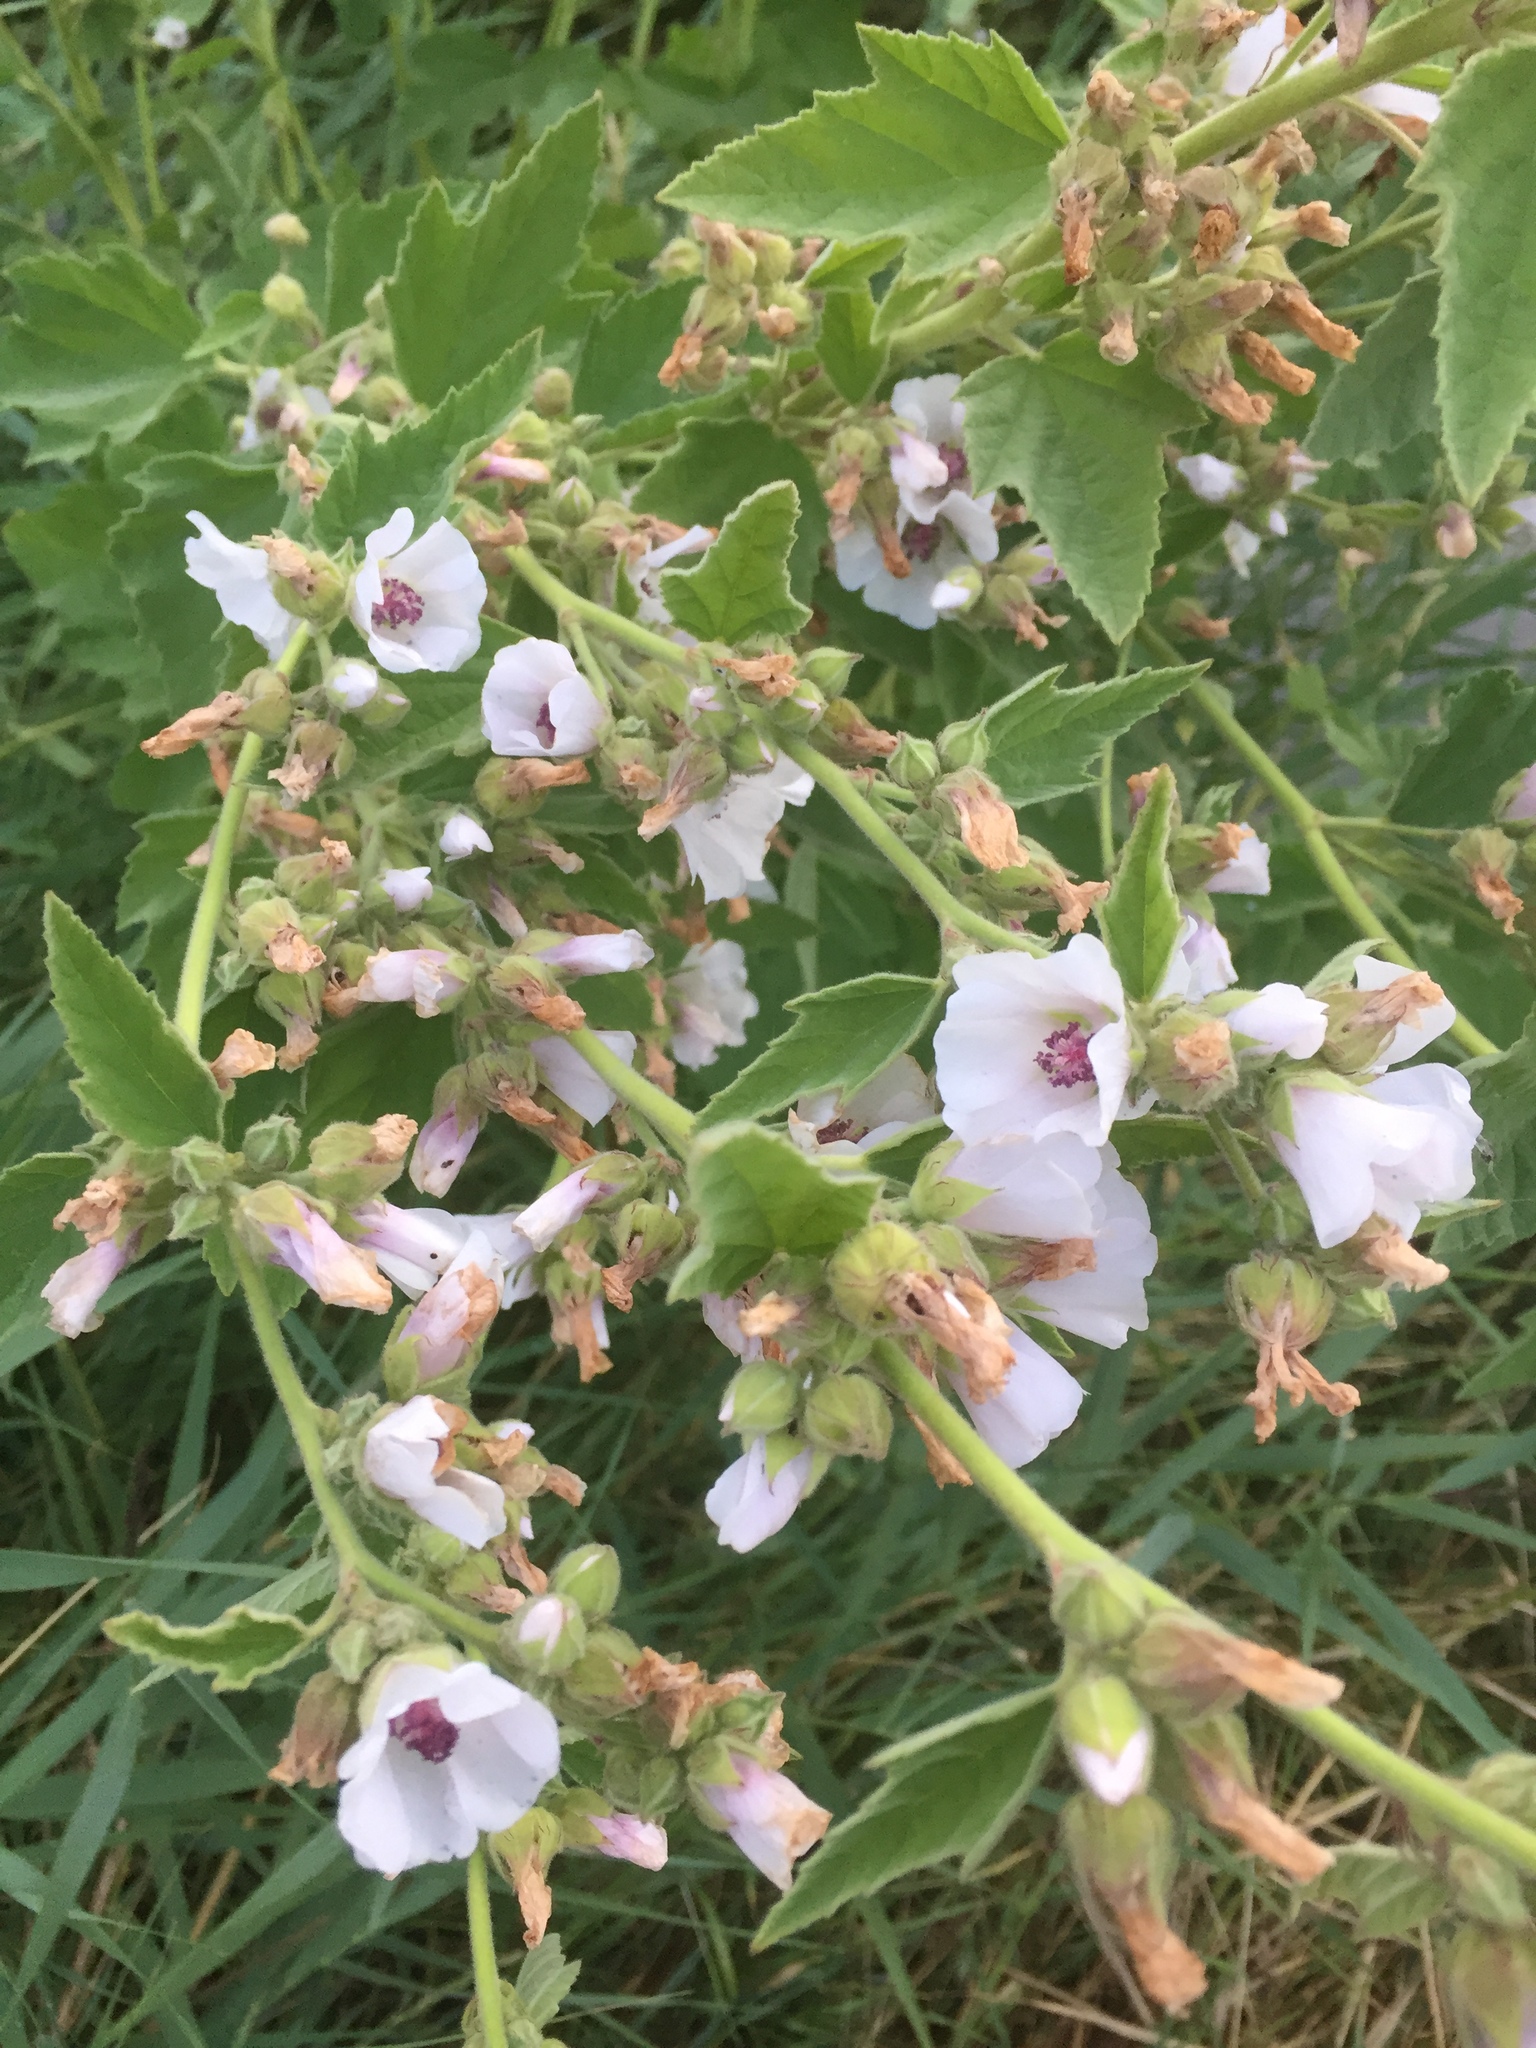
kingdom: Plantae
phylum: Tracheophyta
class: Magnoliopsida
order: Malvales
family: Malvaceae
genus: Althaea
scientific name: Althaea officinalis
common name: Marsh-mallow
